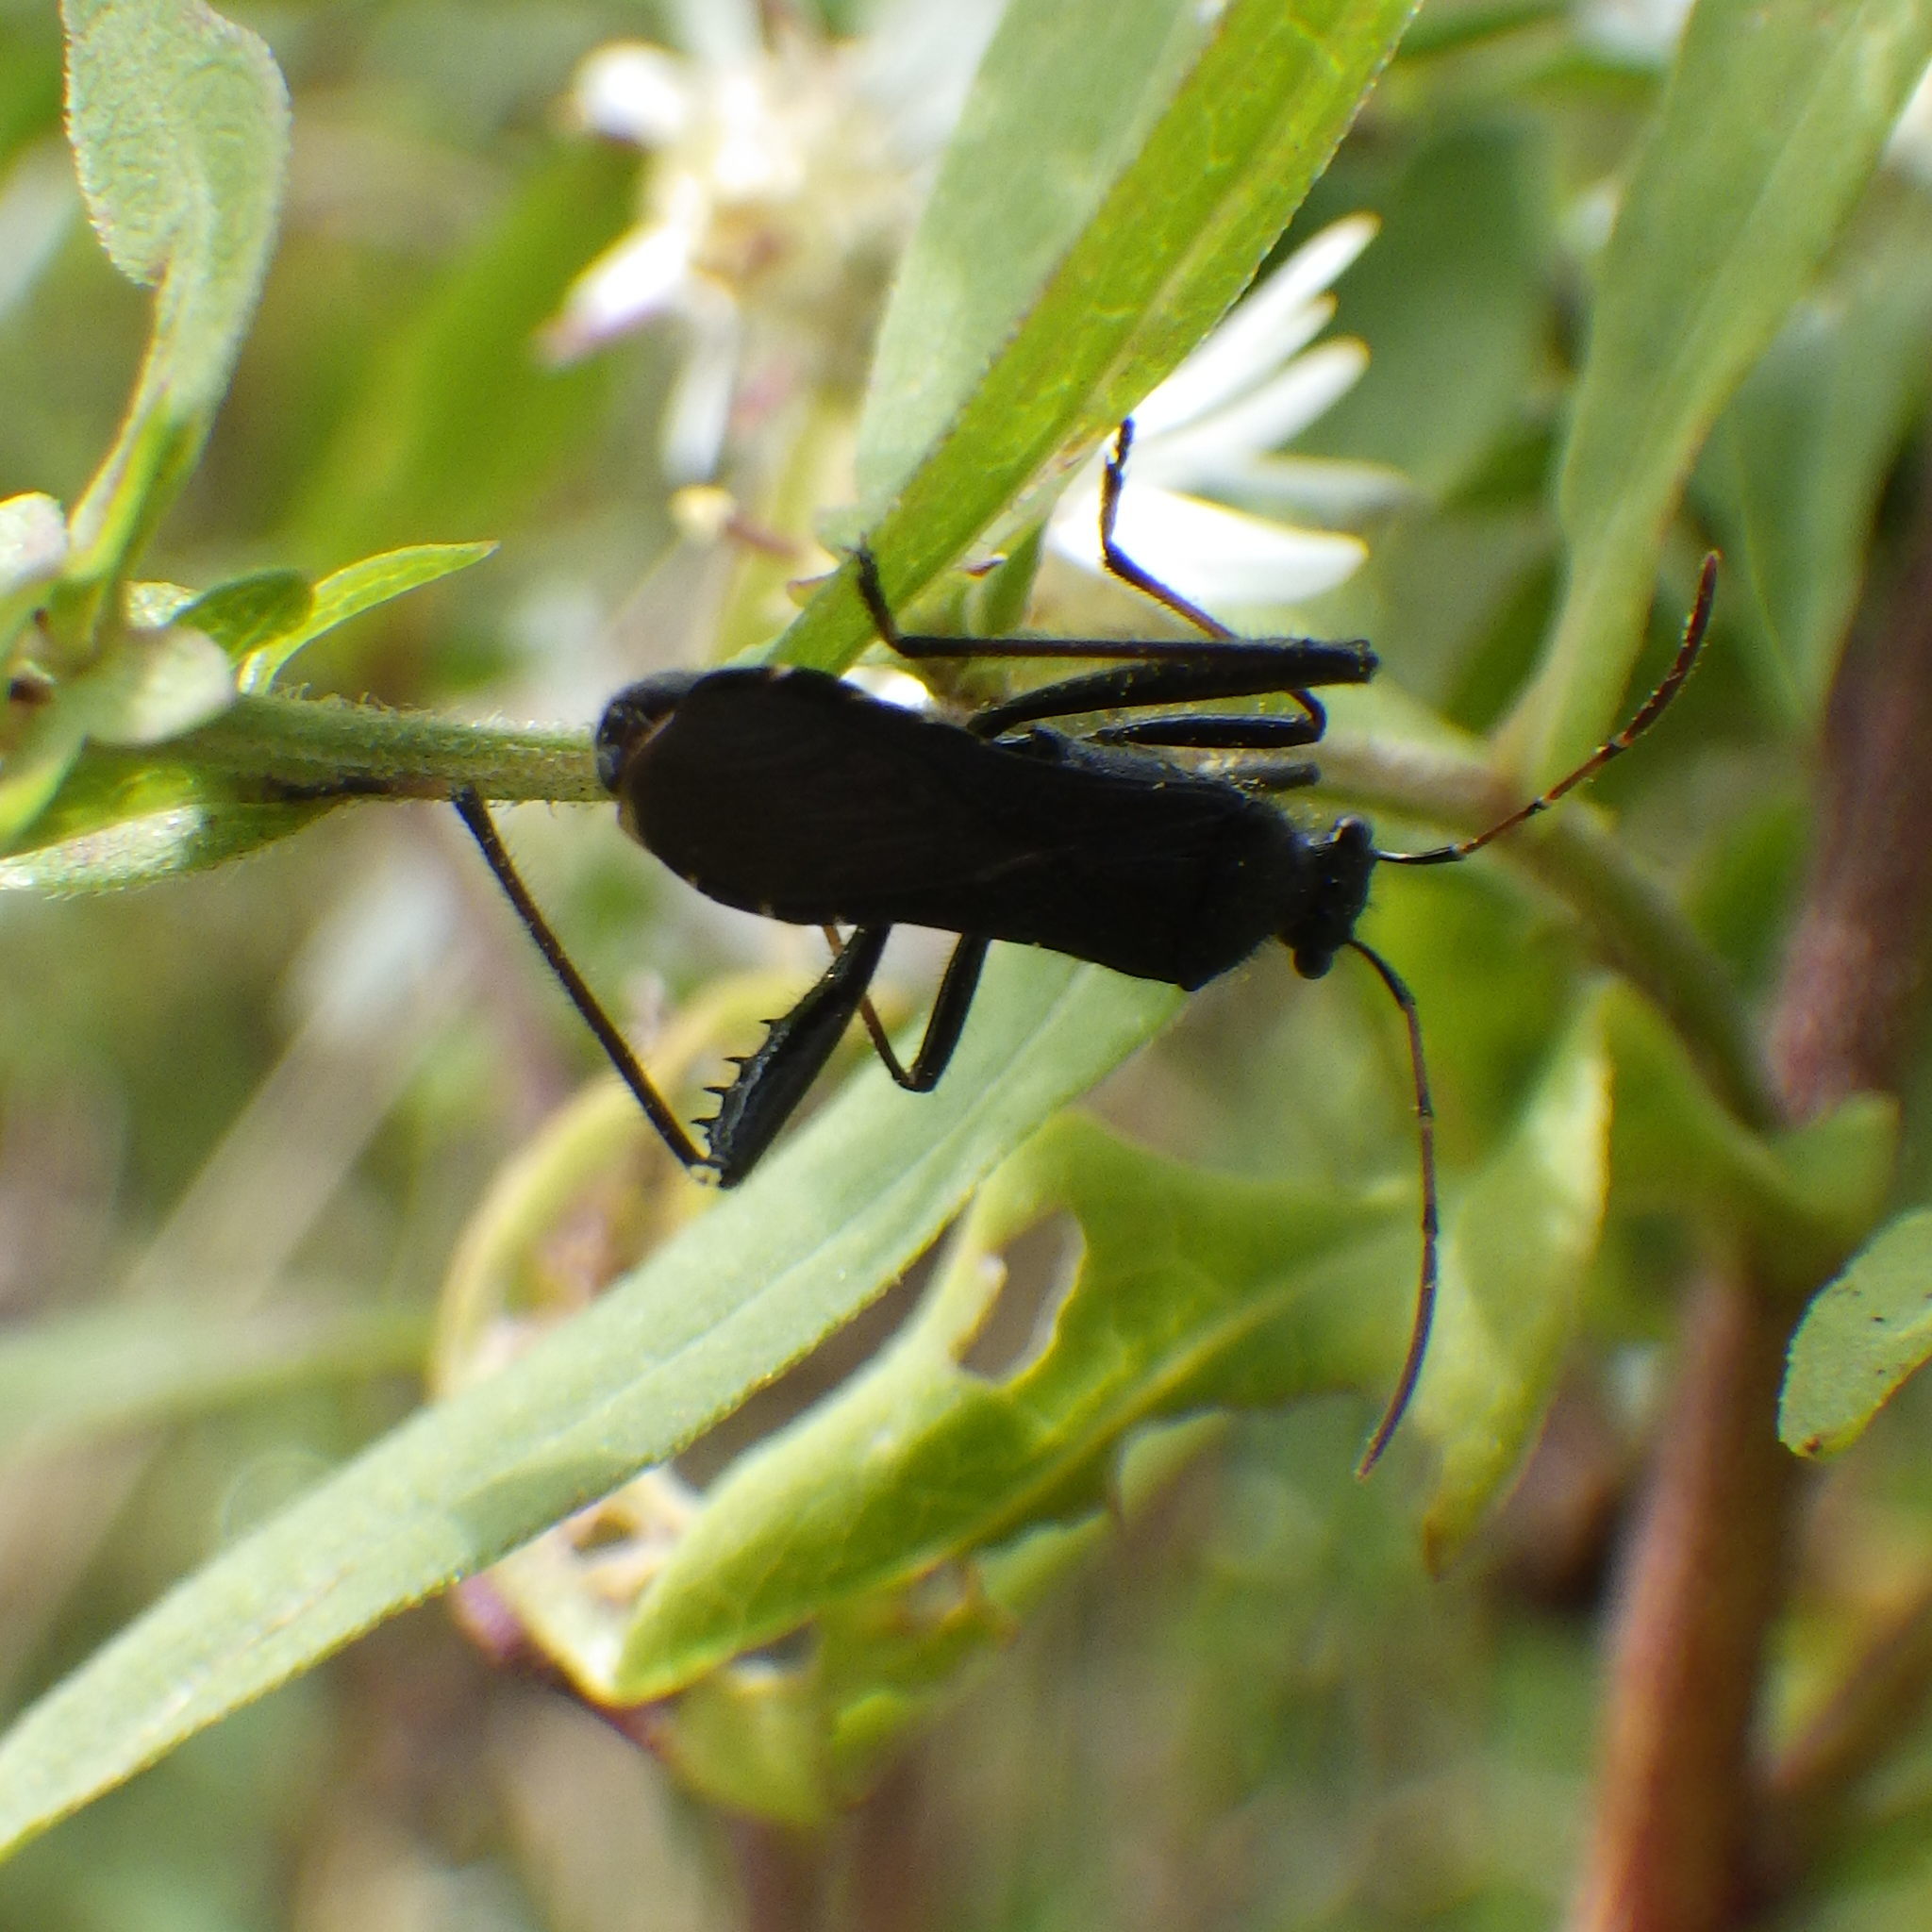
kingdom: Animalia
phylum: Arthropoda
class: Insecta
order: Hemiptera
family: Alydidae
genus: Alydus
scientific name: Alydus eurinus
